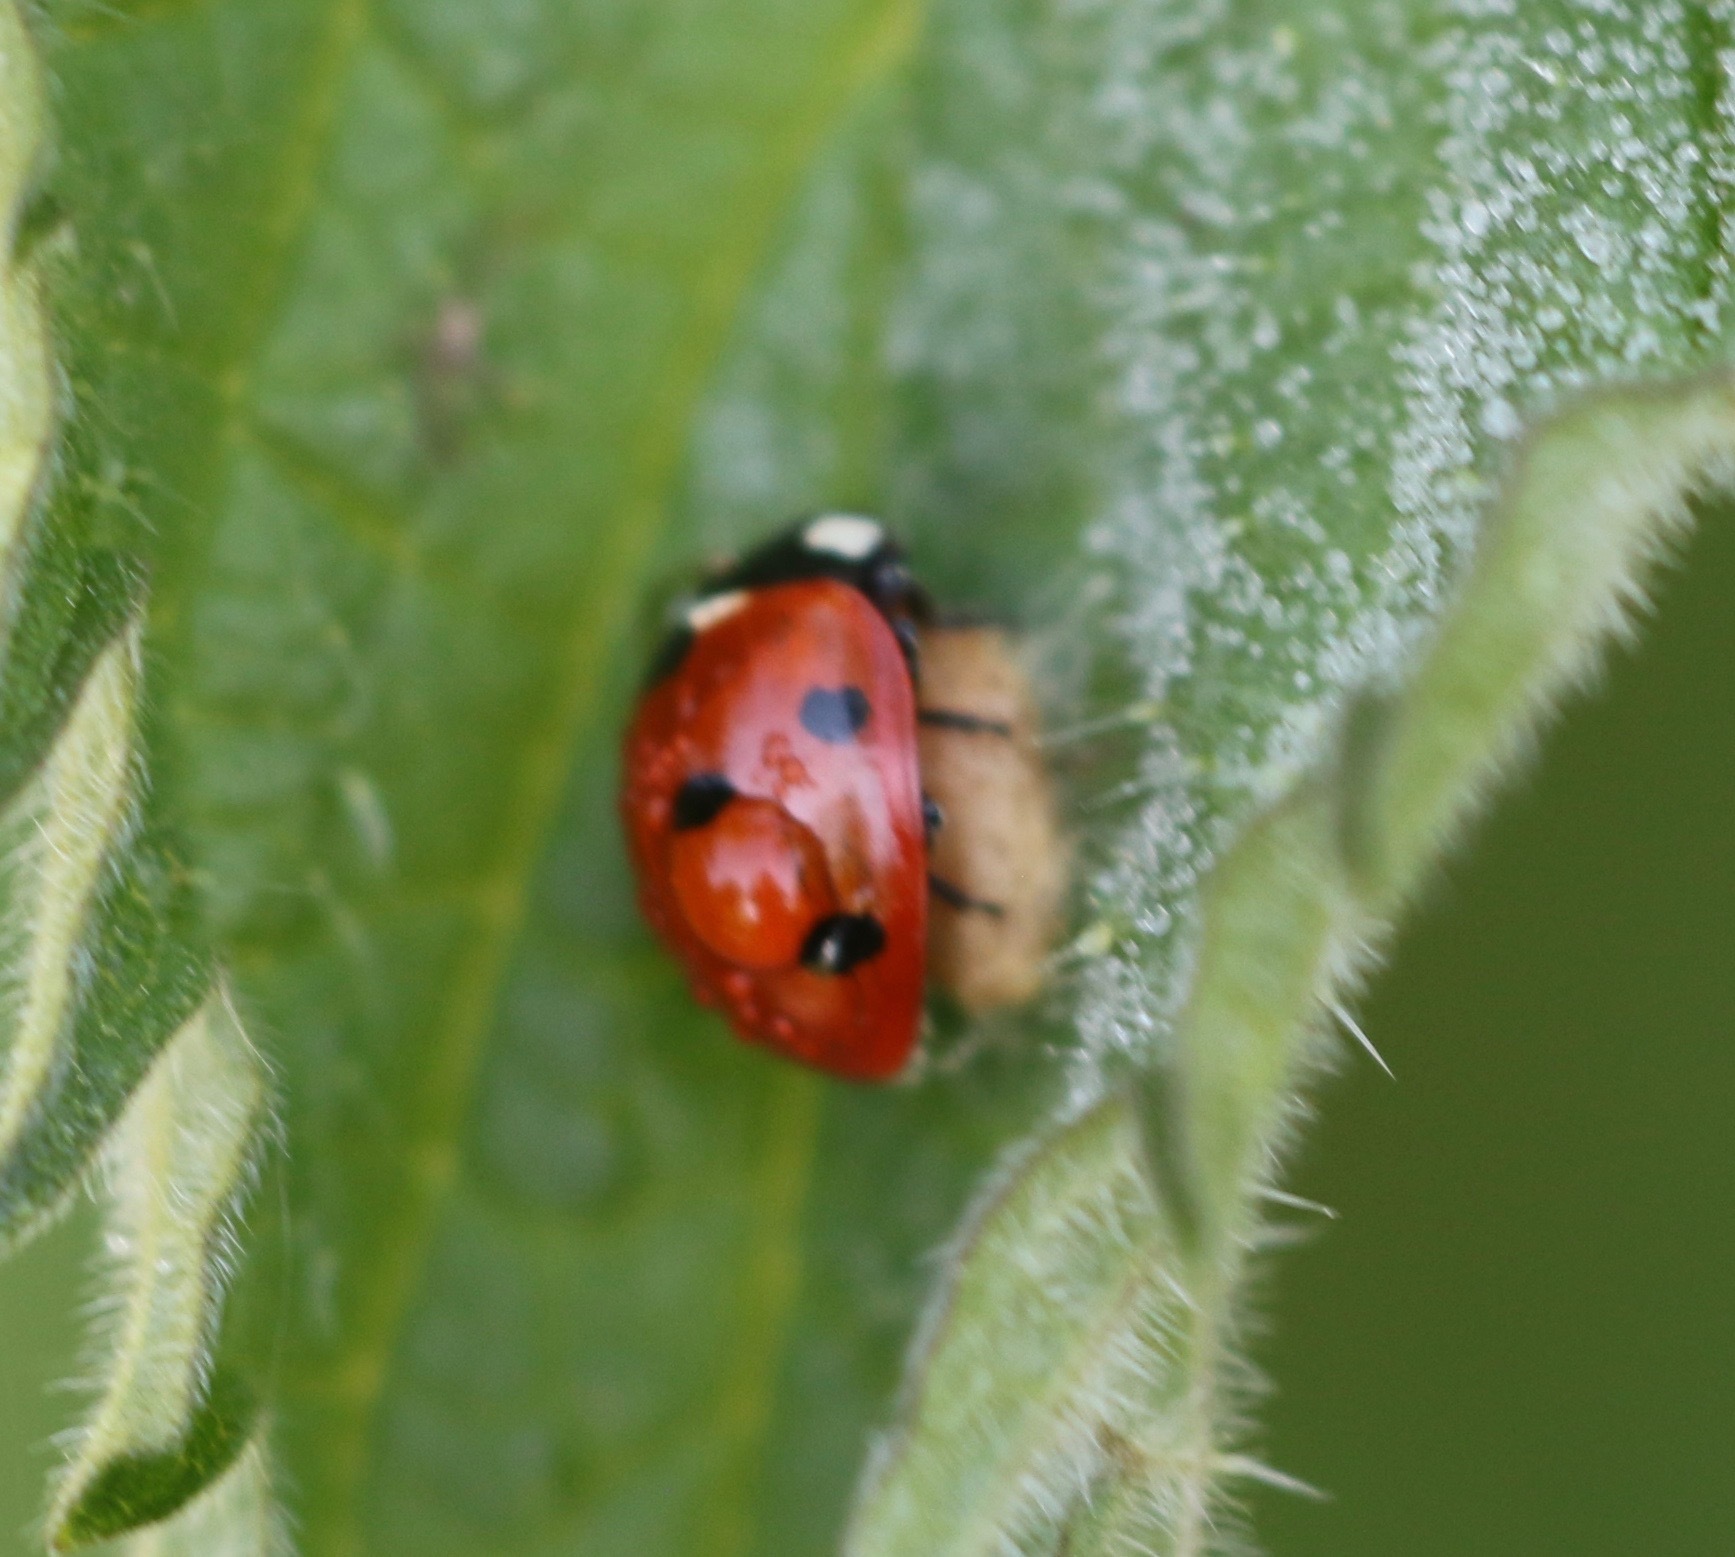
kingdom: Animalia
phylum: Arthropoda
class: Insecta
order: Hymenoptera
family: Braconidae
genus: Dinocampus
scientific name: Dinocampus coccinellae
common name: Braconid wasp
